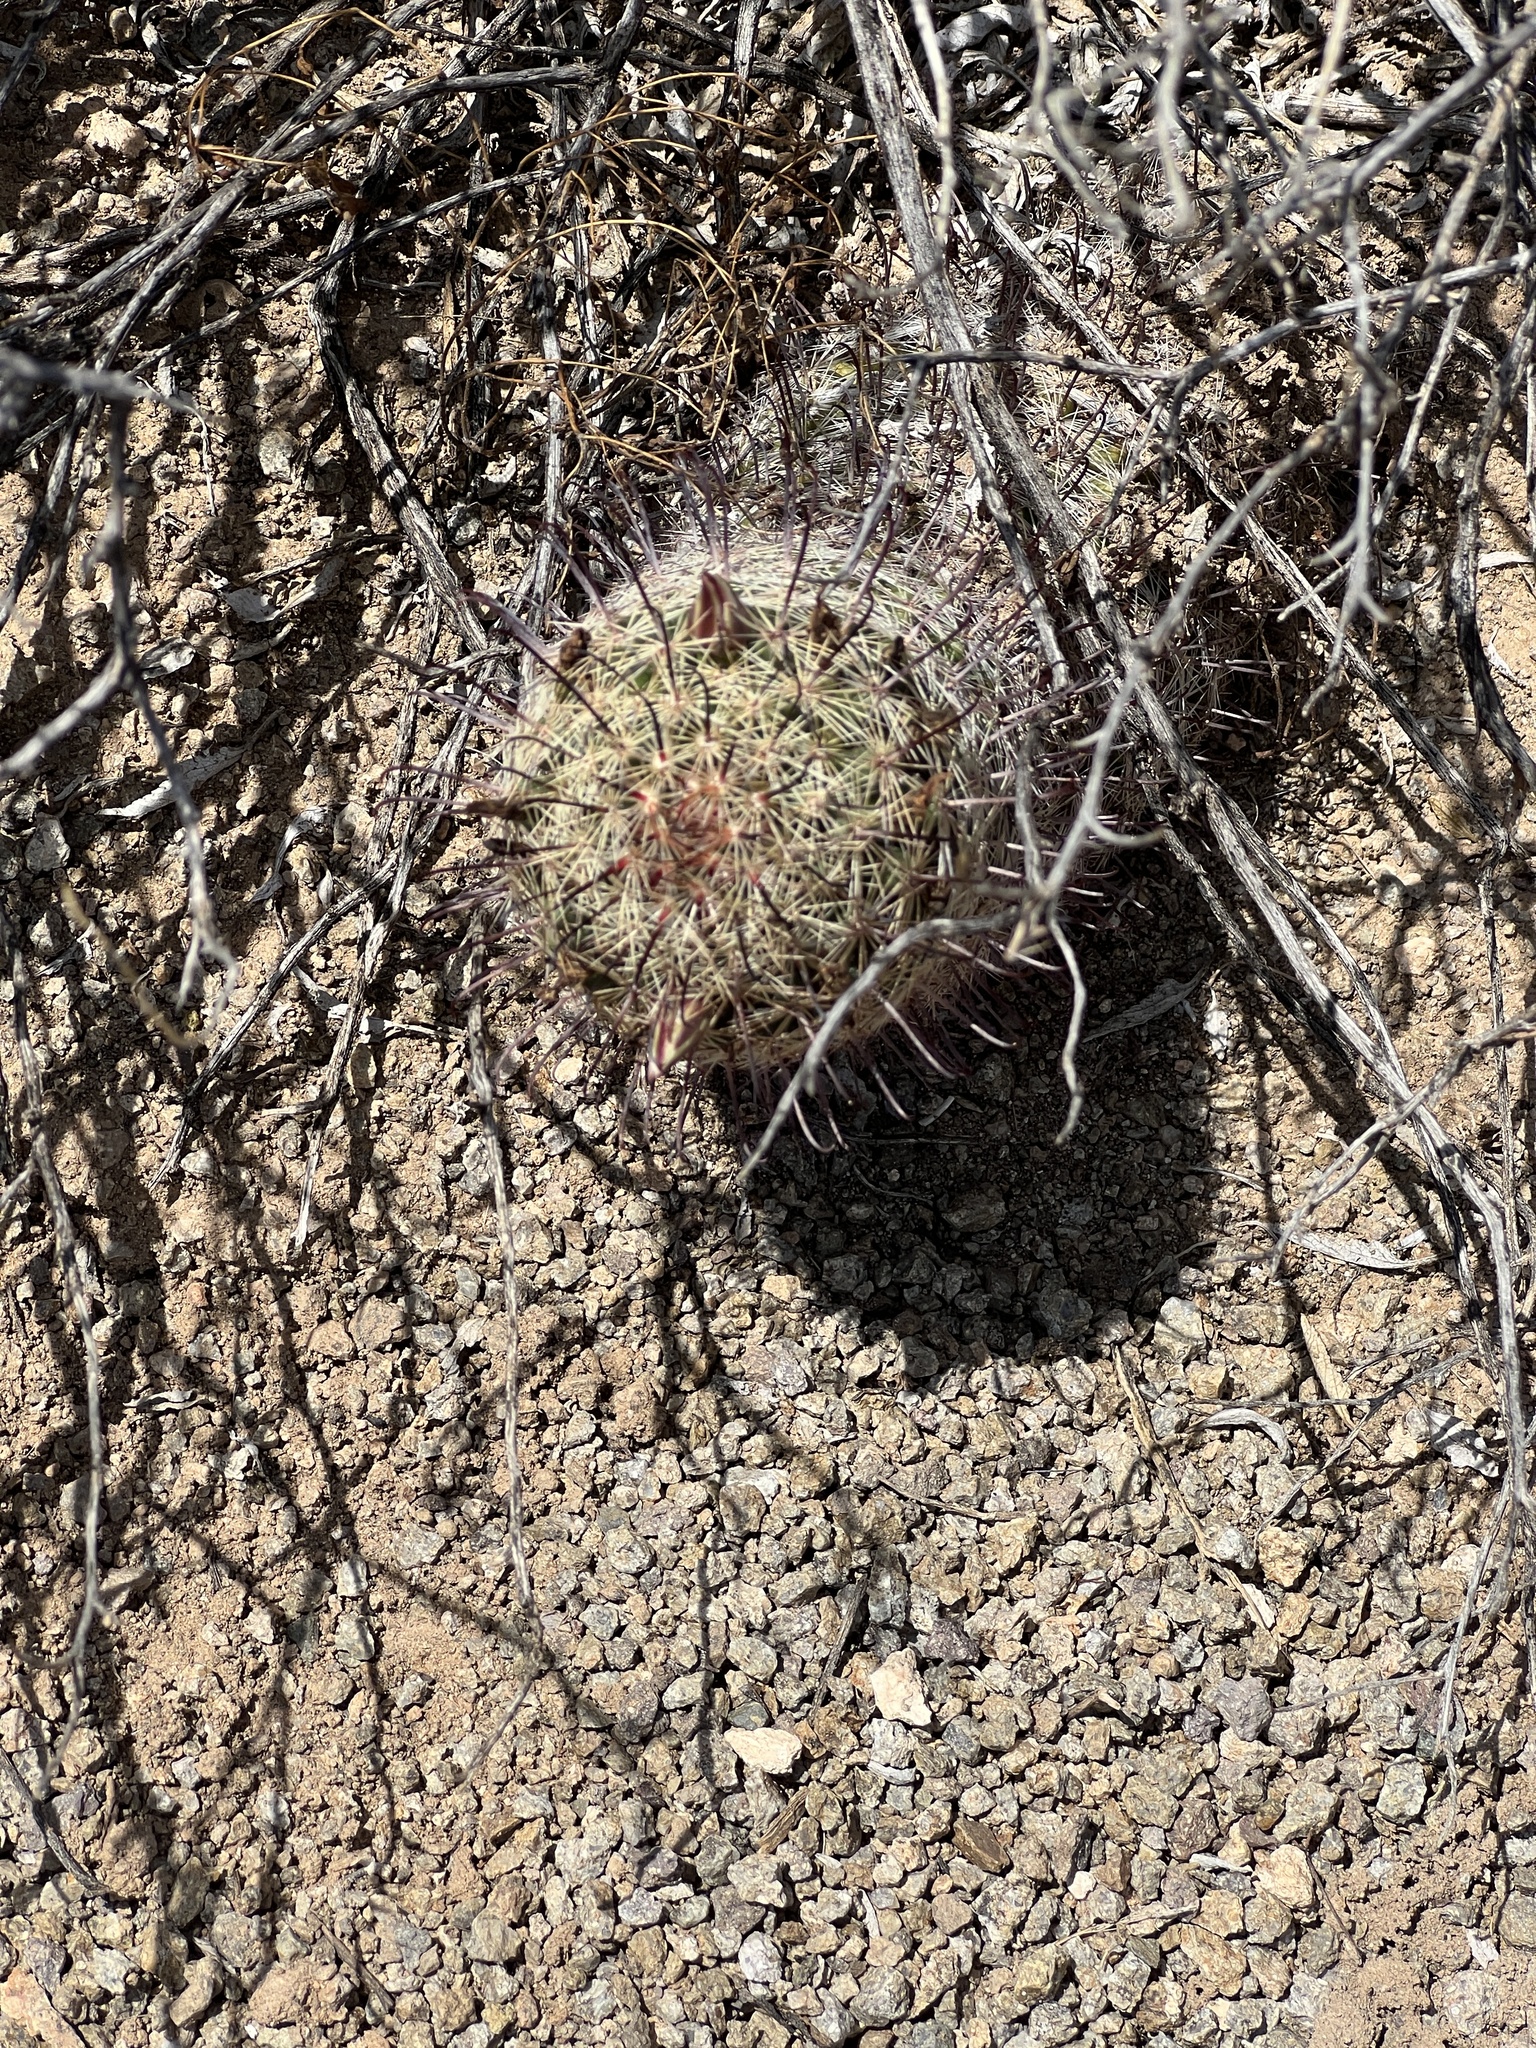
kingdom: Plantae
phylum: Tracheophyta
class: Magnoliopsida
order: Caryophyllales
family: Cactaceae
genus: Cochemiea
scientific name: Cochemiea grahamii
